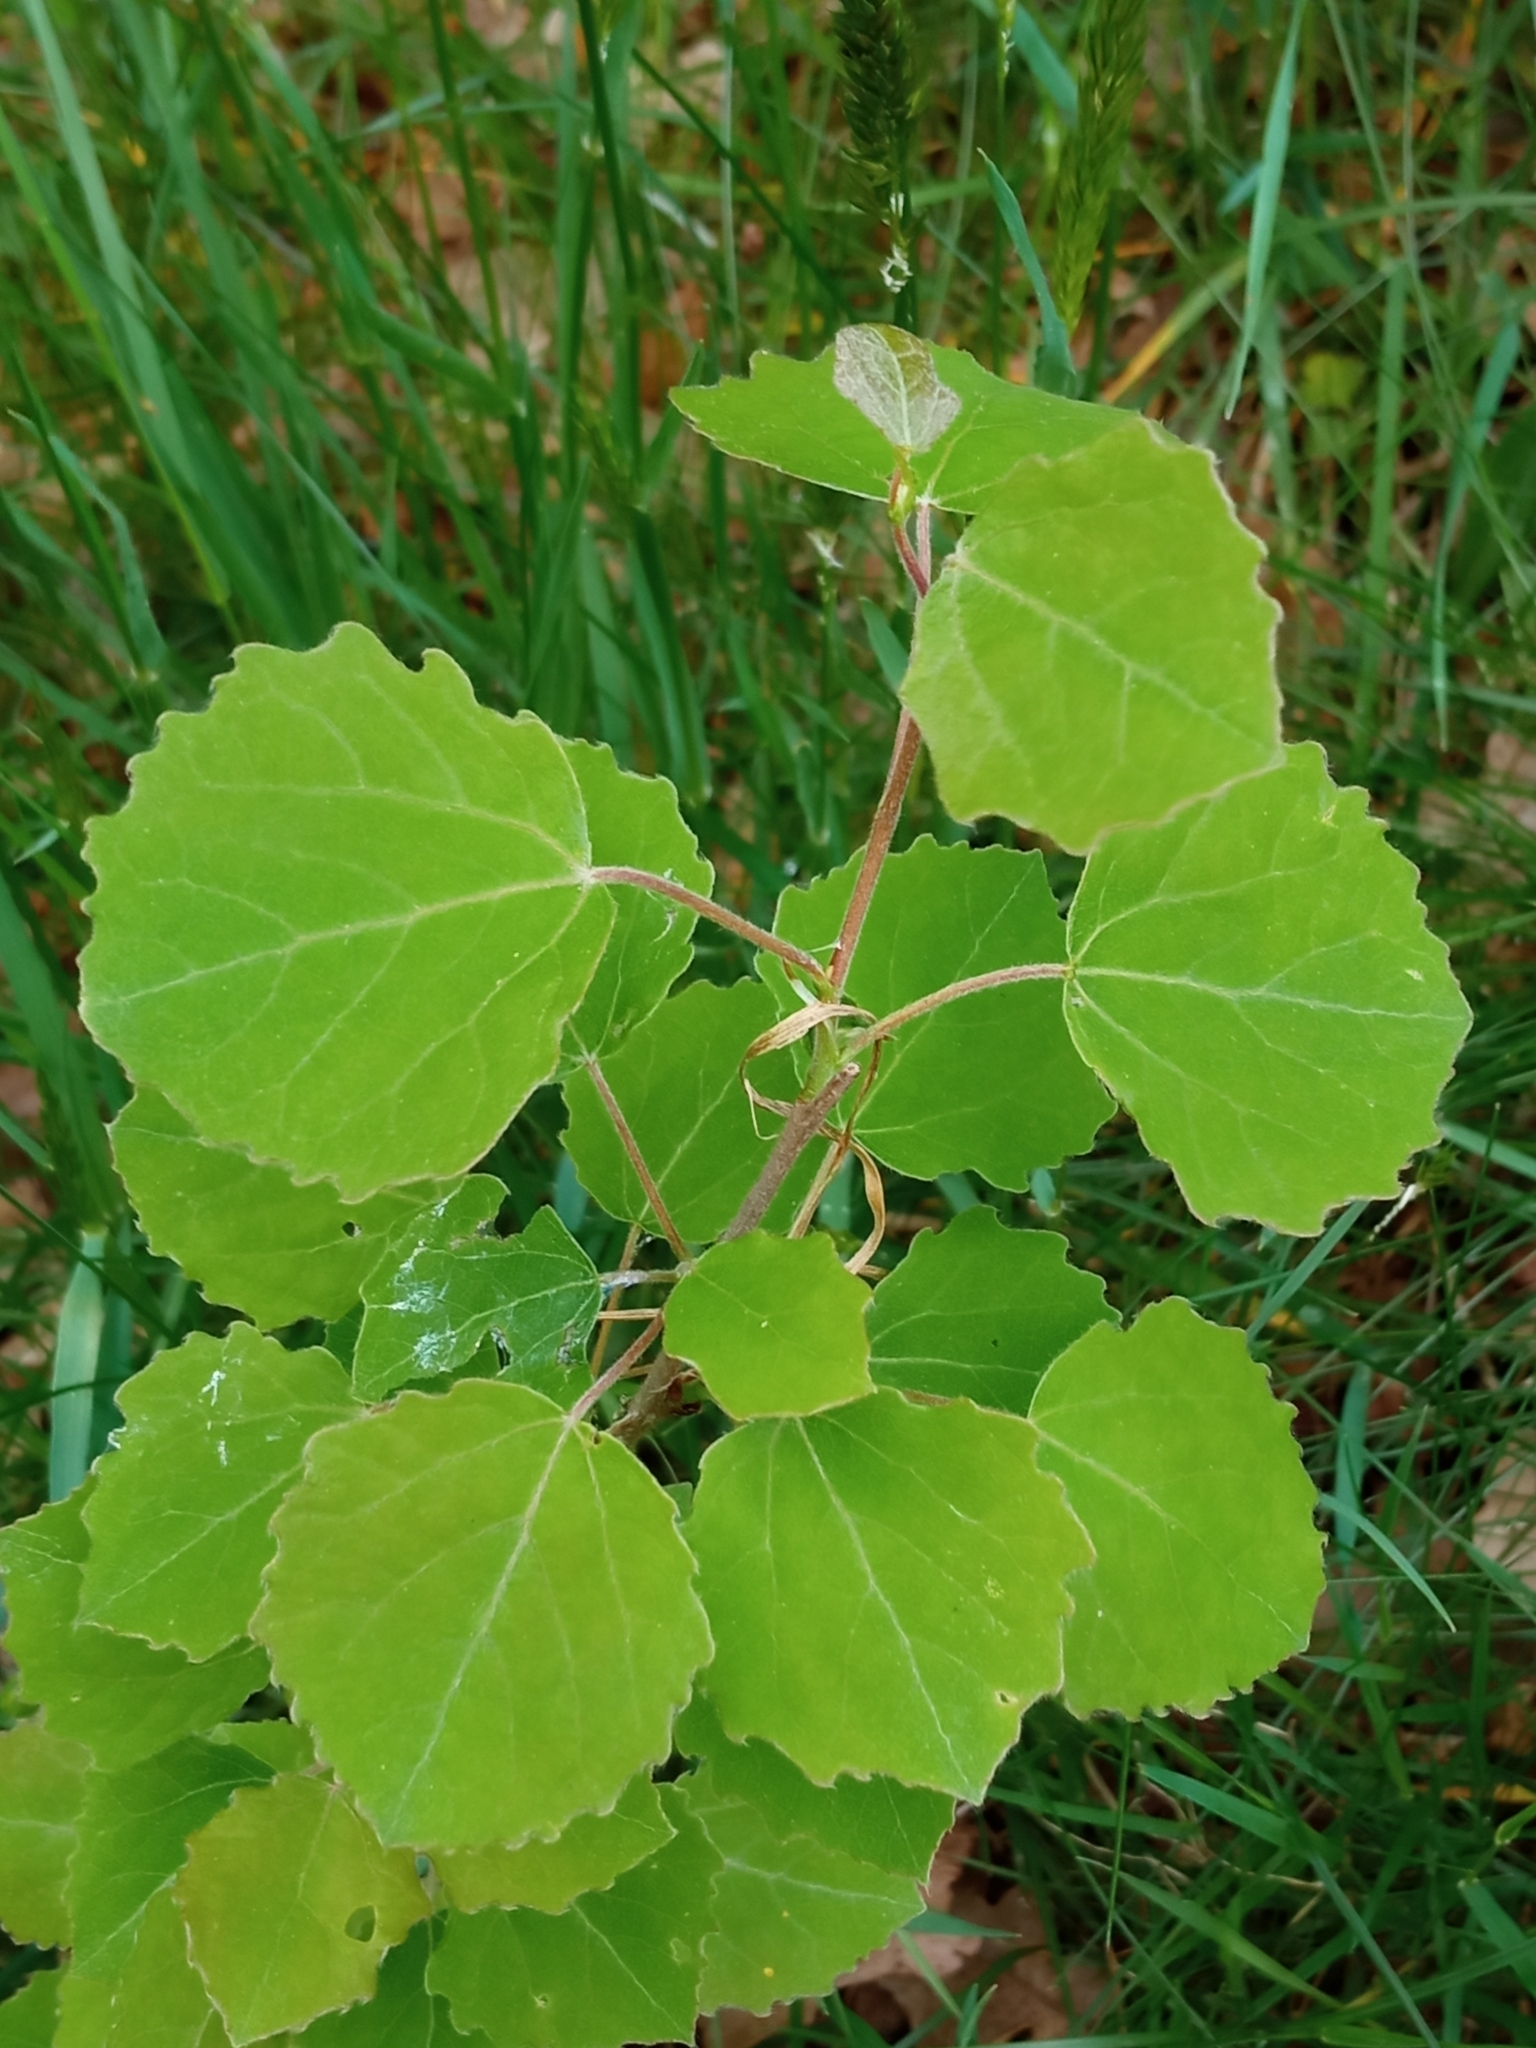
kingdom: Plantae
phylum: Tracheophyta
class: Magnoliopsida
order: Malpighiales
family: Salicaceae
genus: Populus
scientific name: Populus tremula
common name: European aspen
